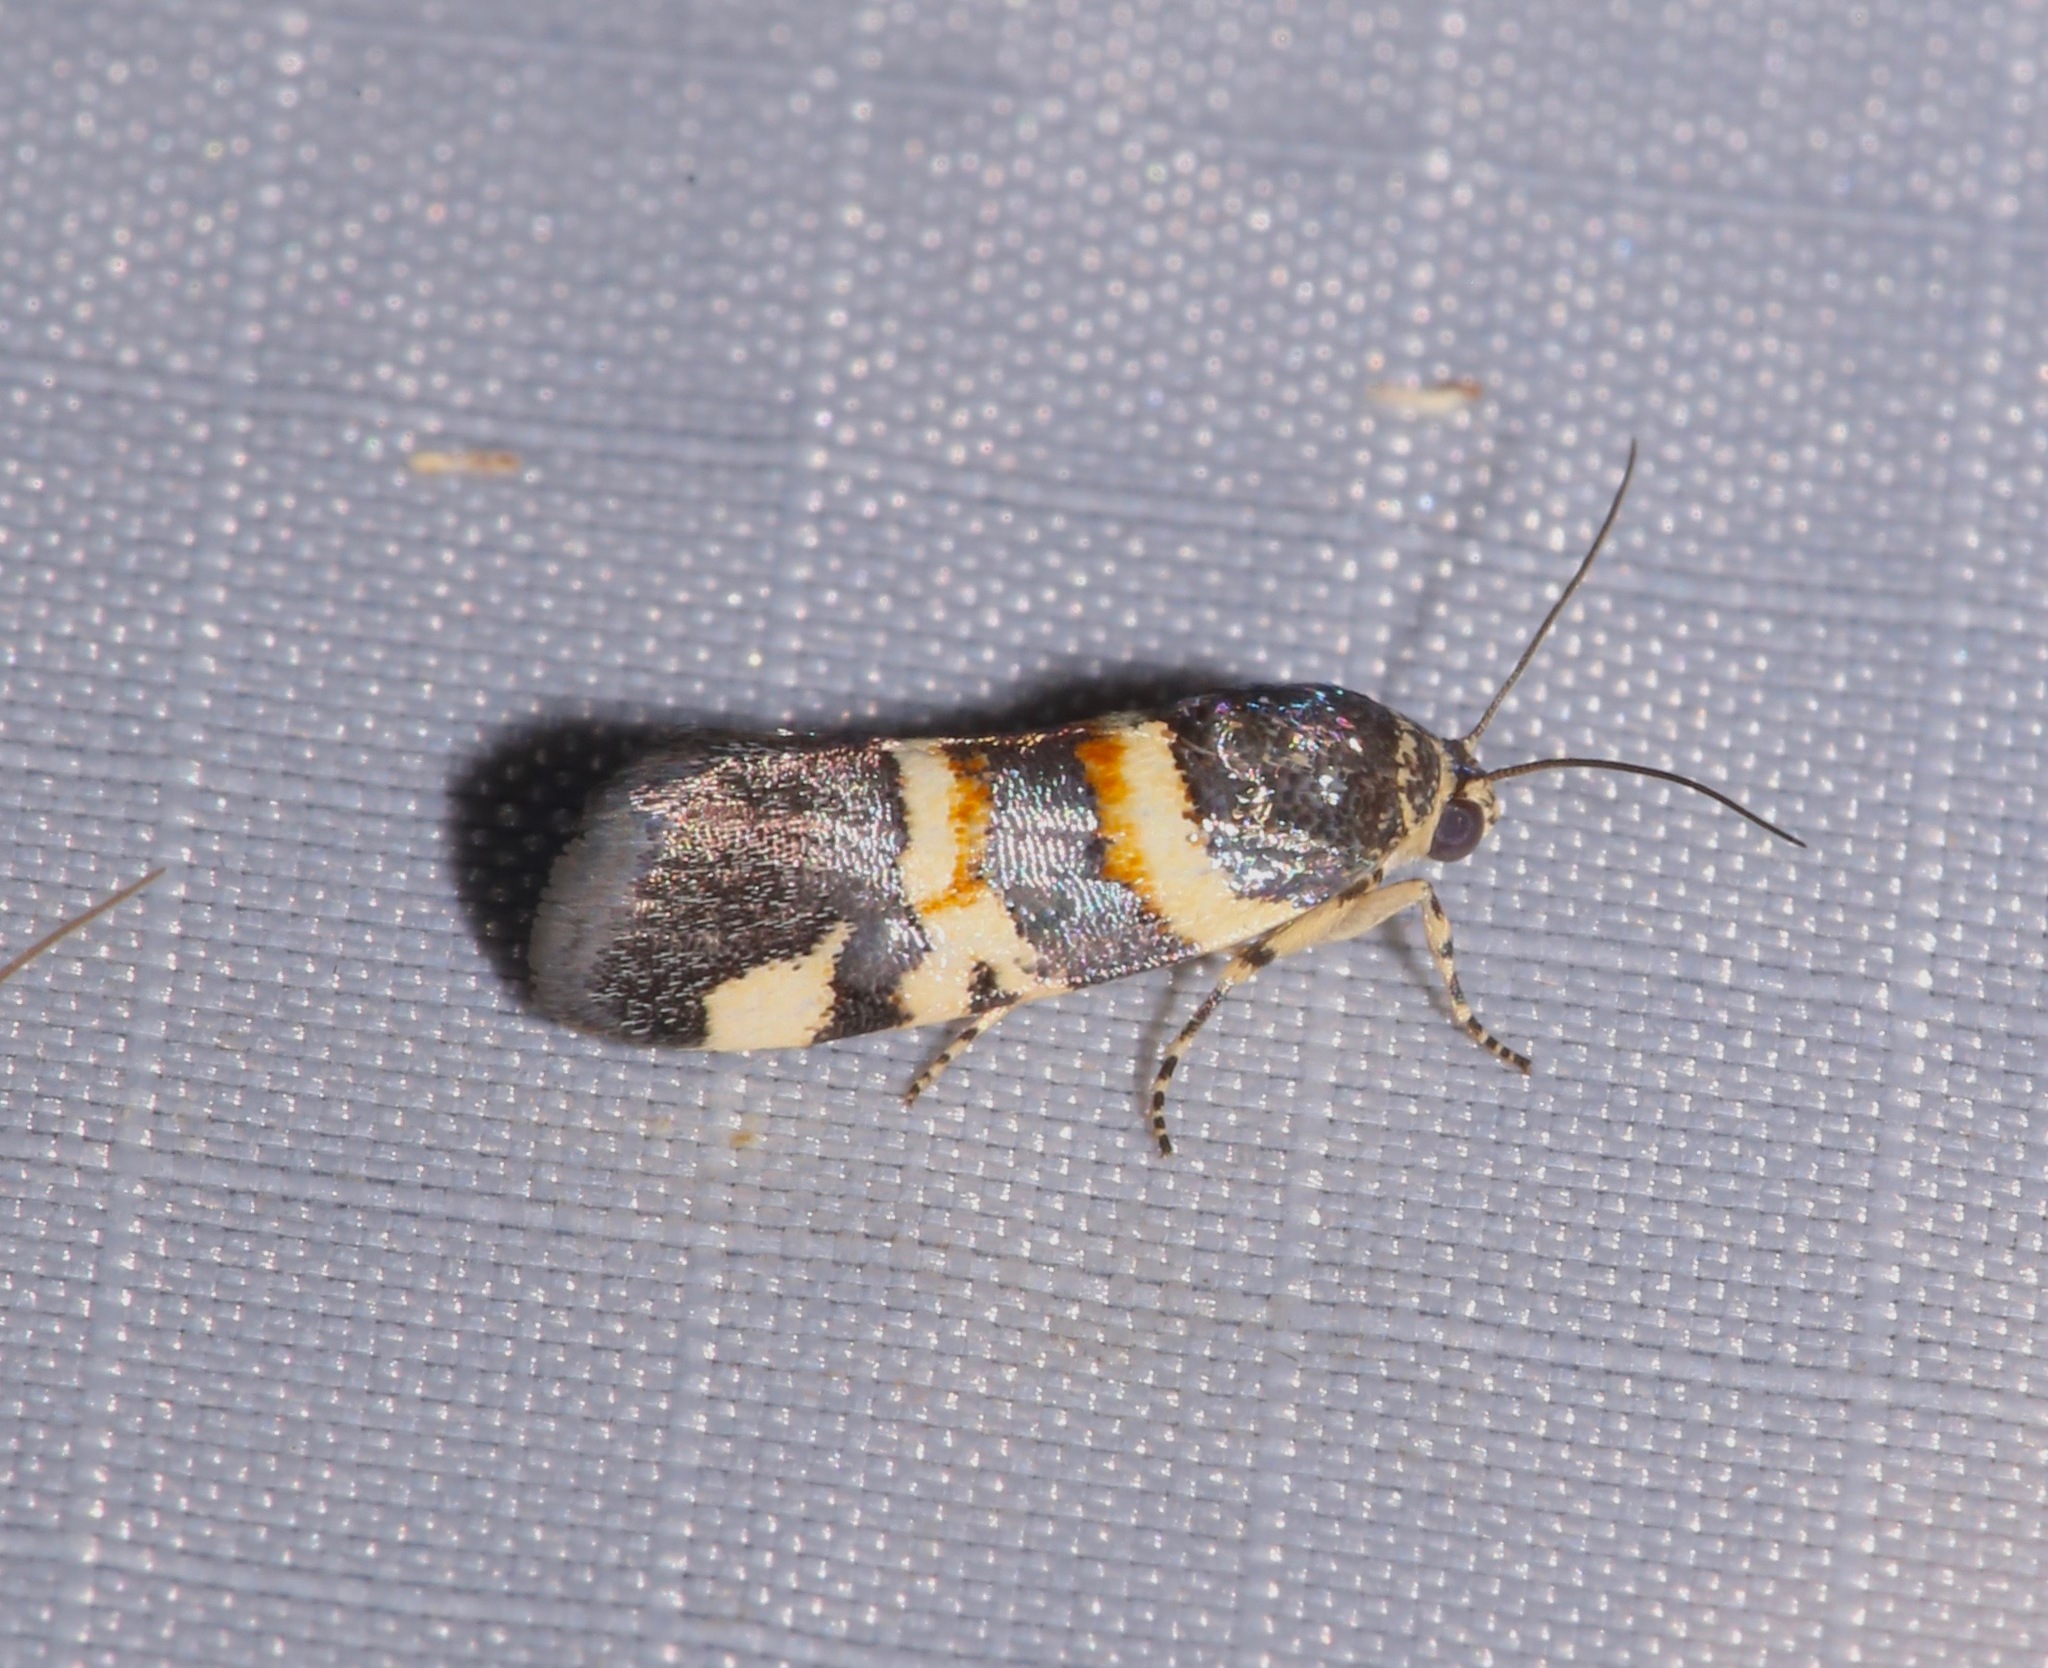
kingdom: Animalia
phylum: Arthropoda
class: Insecta
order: Lepidoptera
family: Noctuidae
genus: Spragueia
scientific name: Spragueia funeralis
